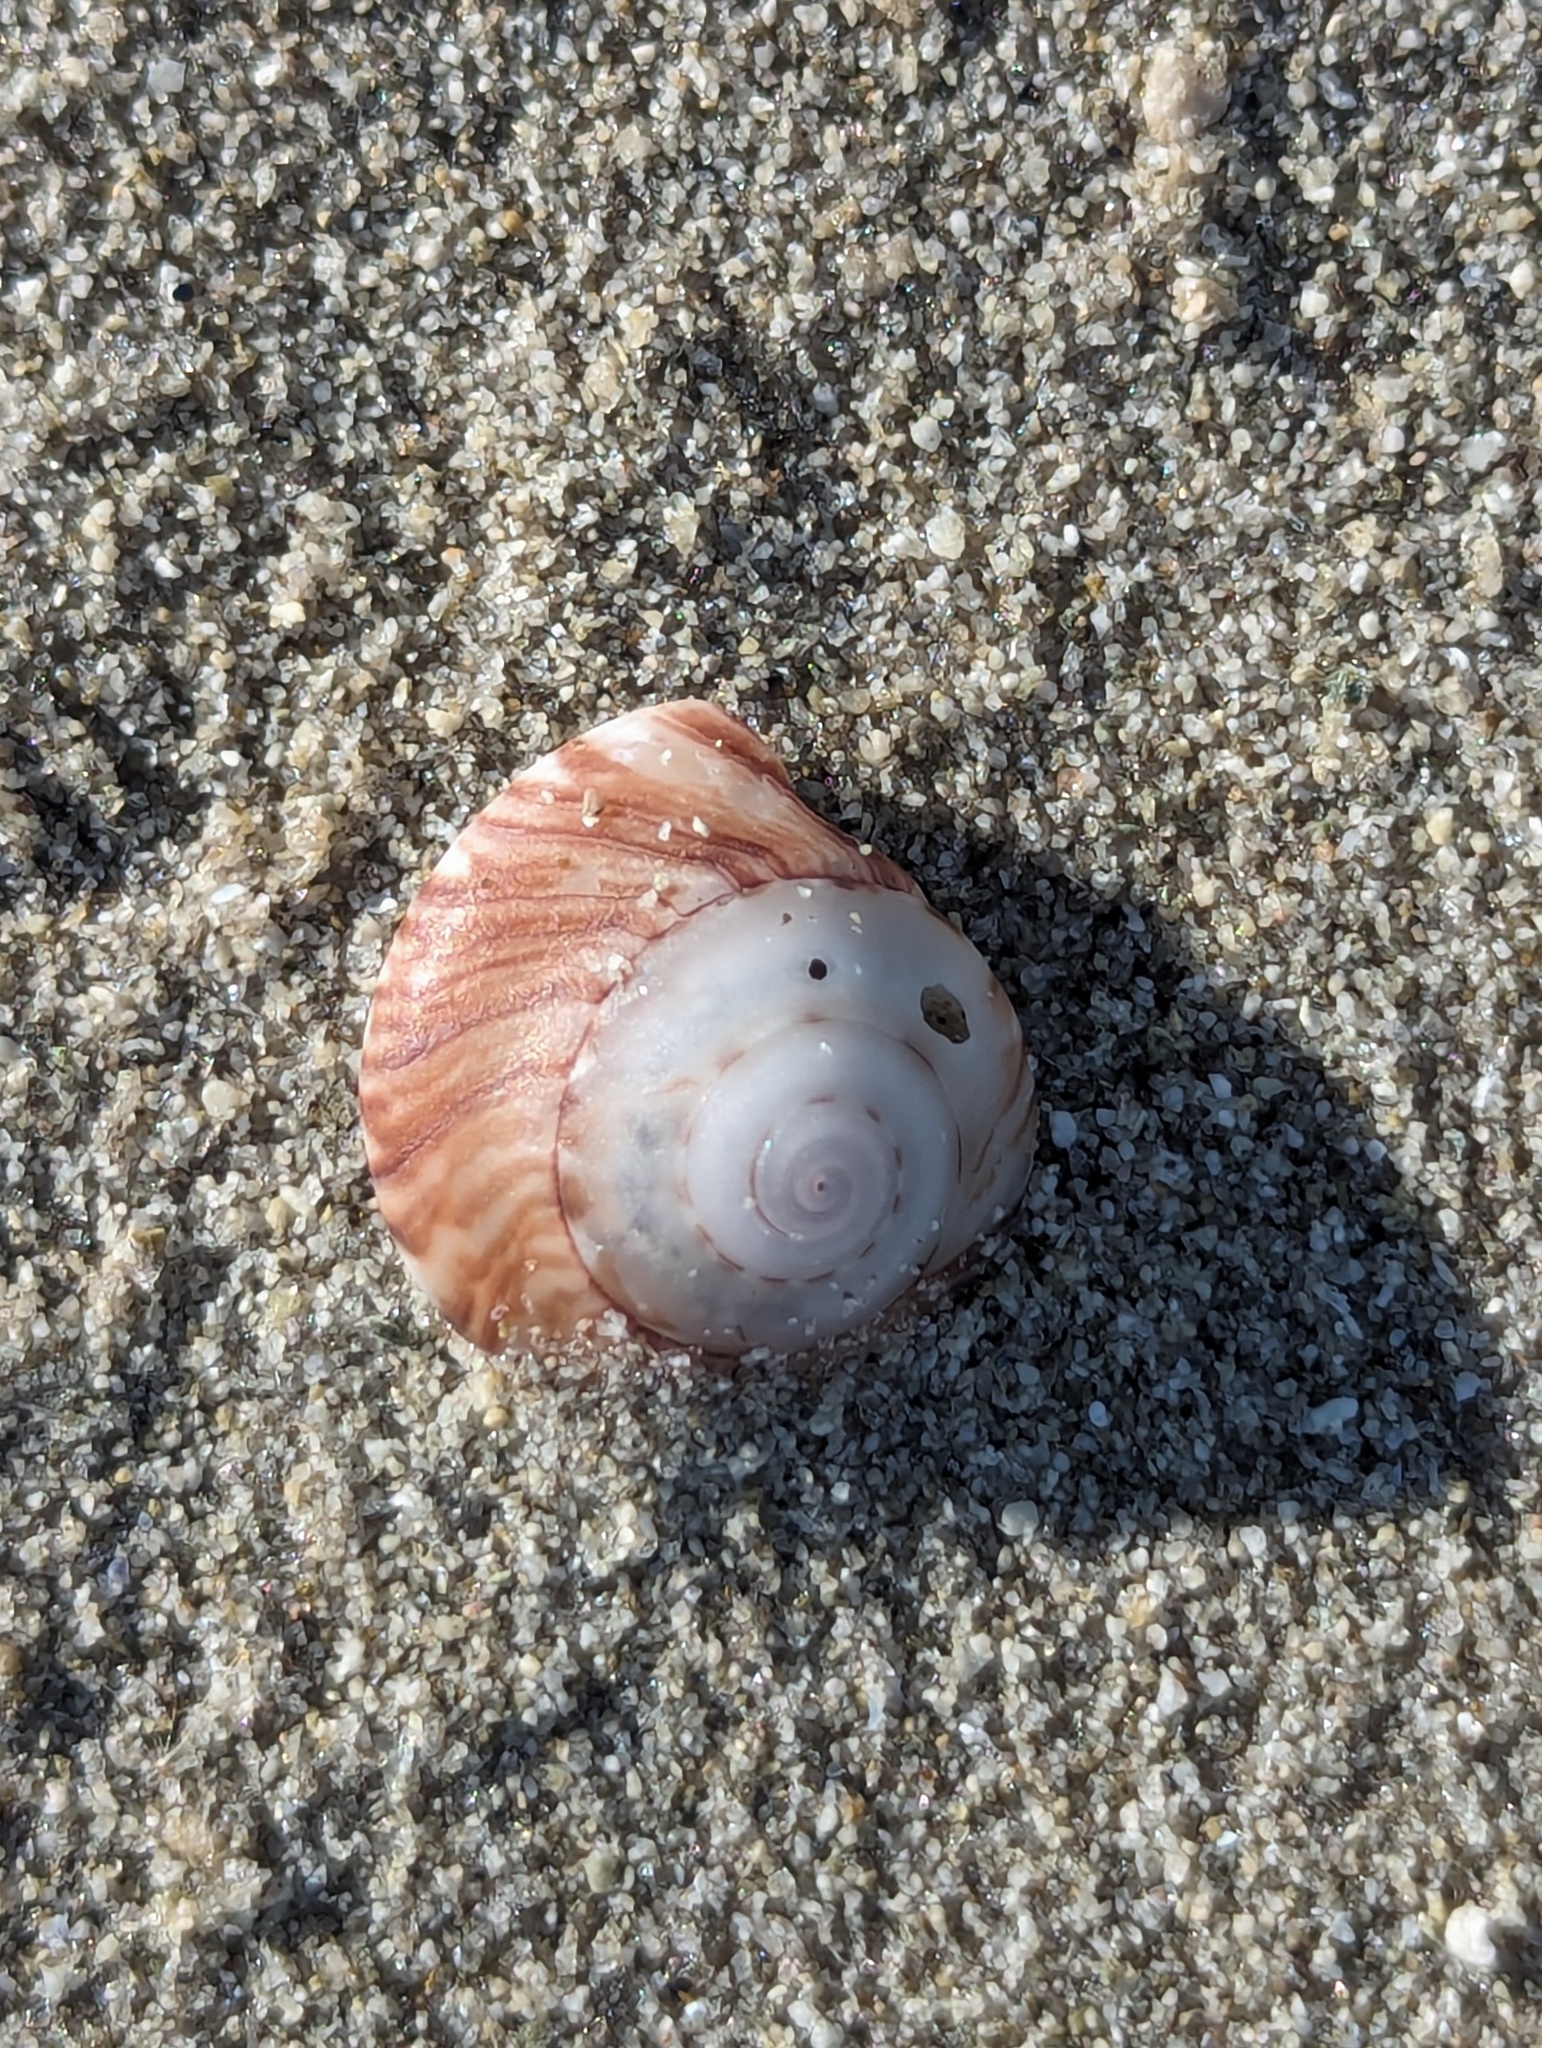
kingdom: Animalia
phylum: Mollusca
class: Gastropoda
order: Trochida
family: Trochidae
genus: Zethalia
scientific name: Zethalia zelandica
